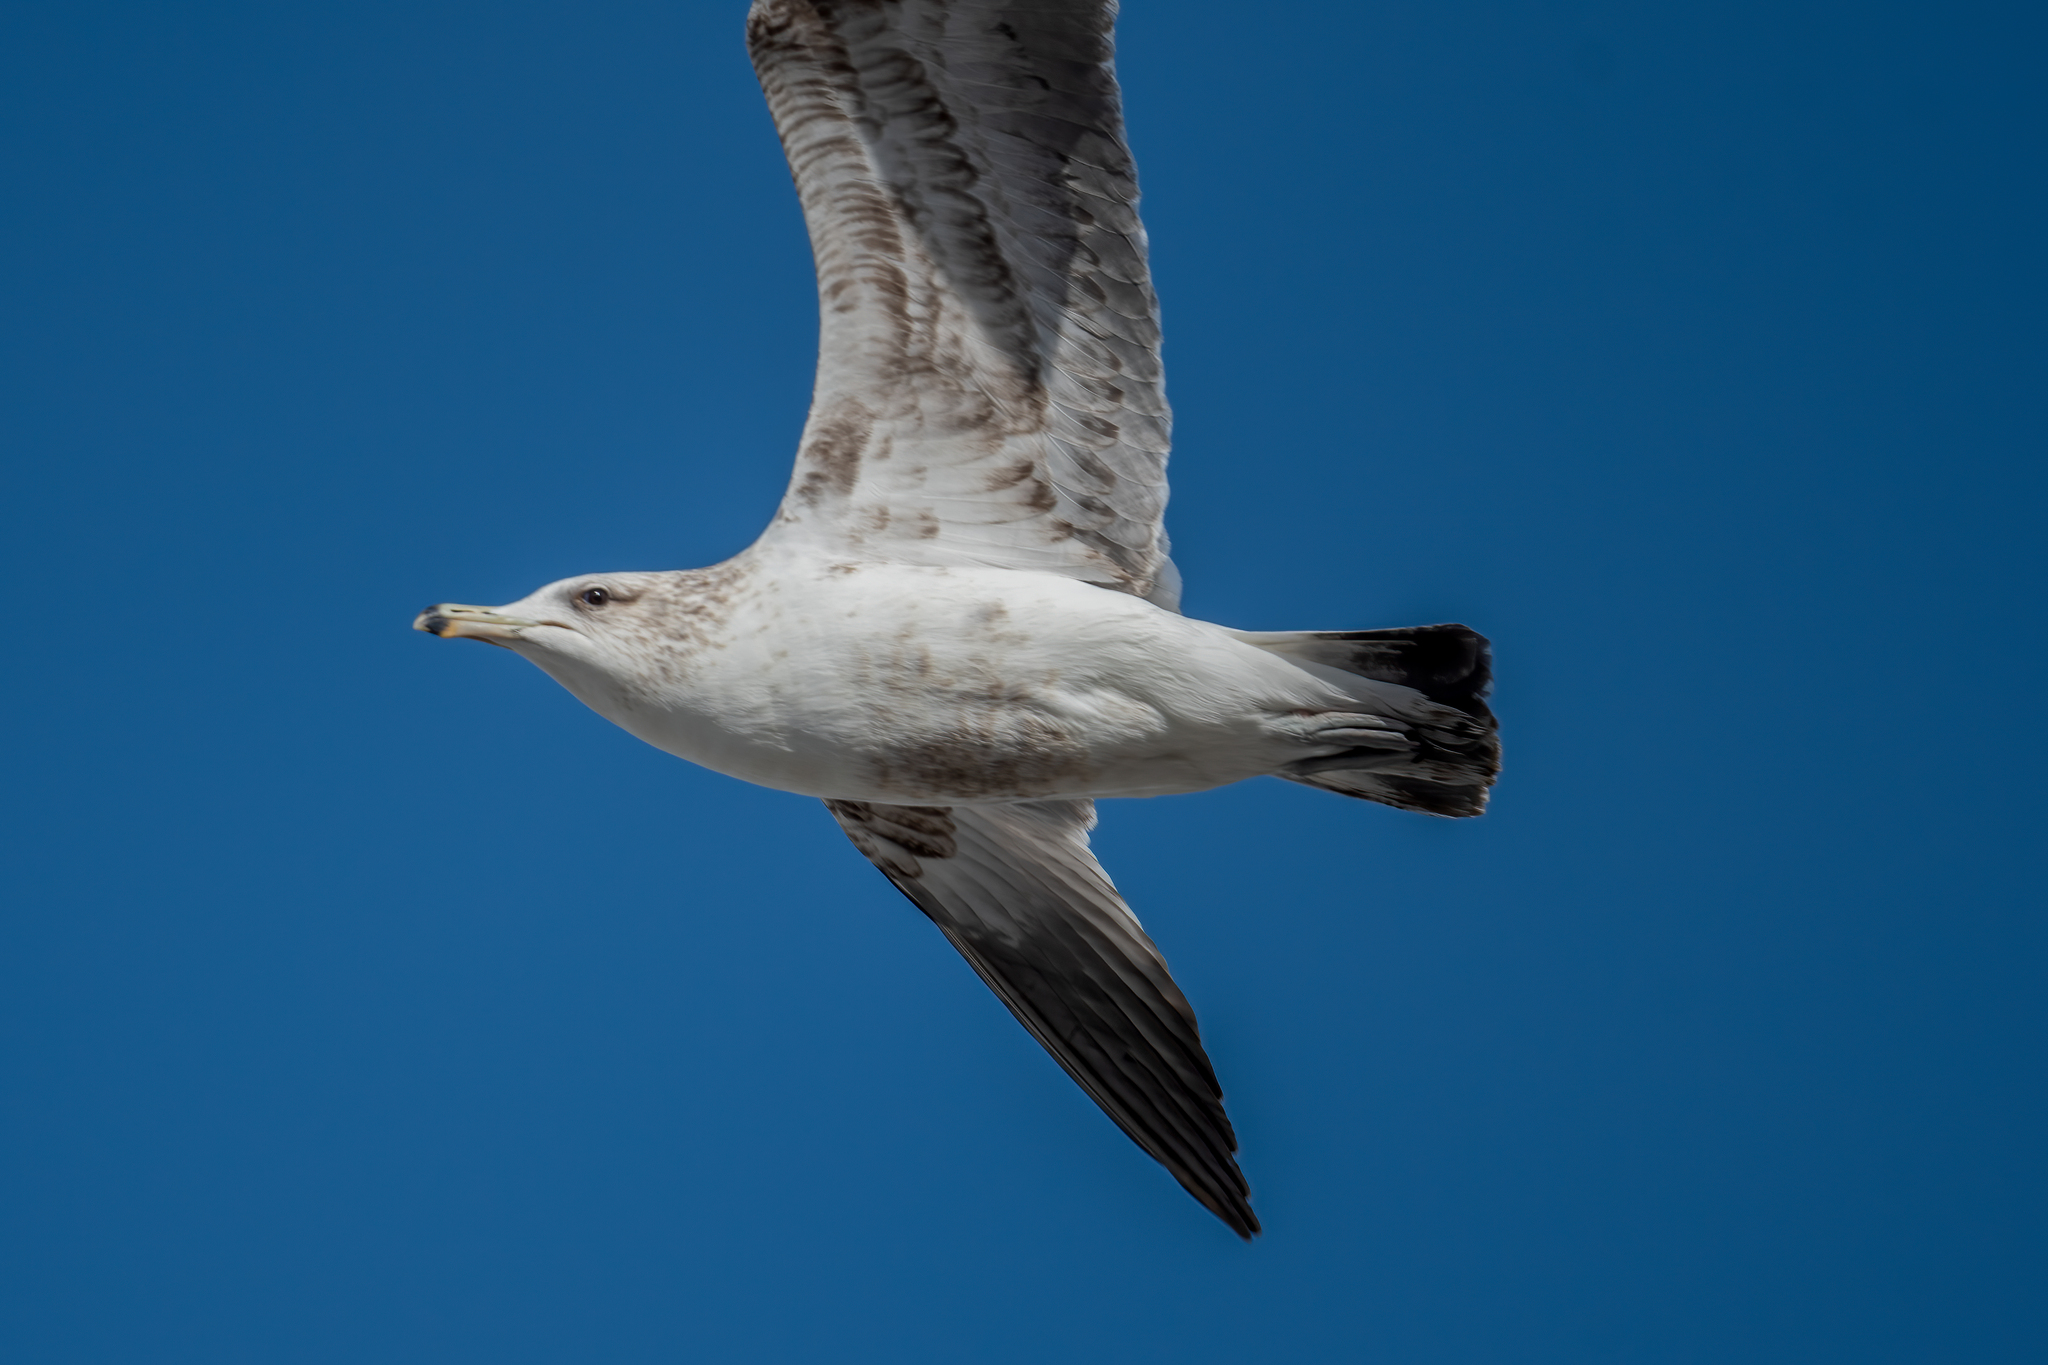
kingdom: Animalia
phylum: Chordata
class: Aves
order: Charadriiformes
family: Laridae
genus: Larus
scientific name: Larus californicus
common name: California gull
